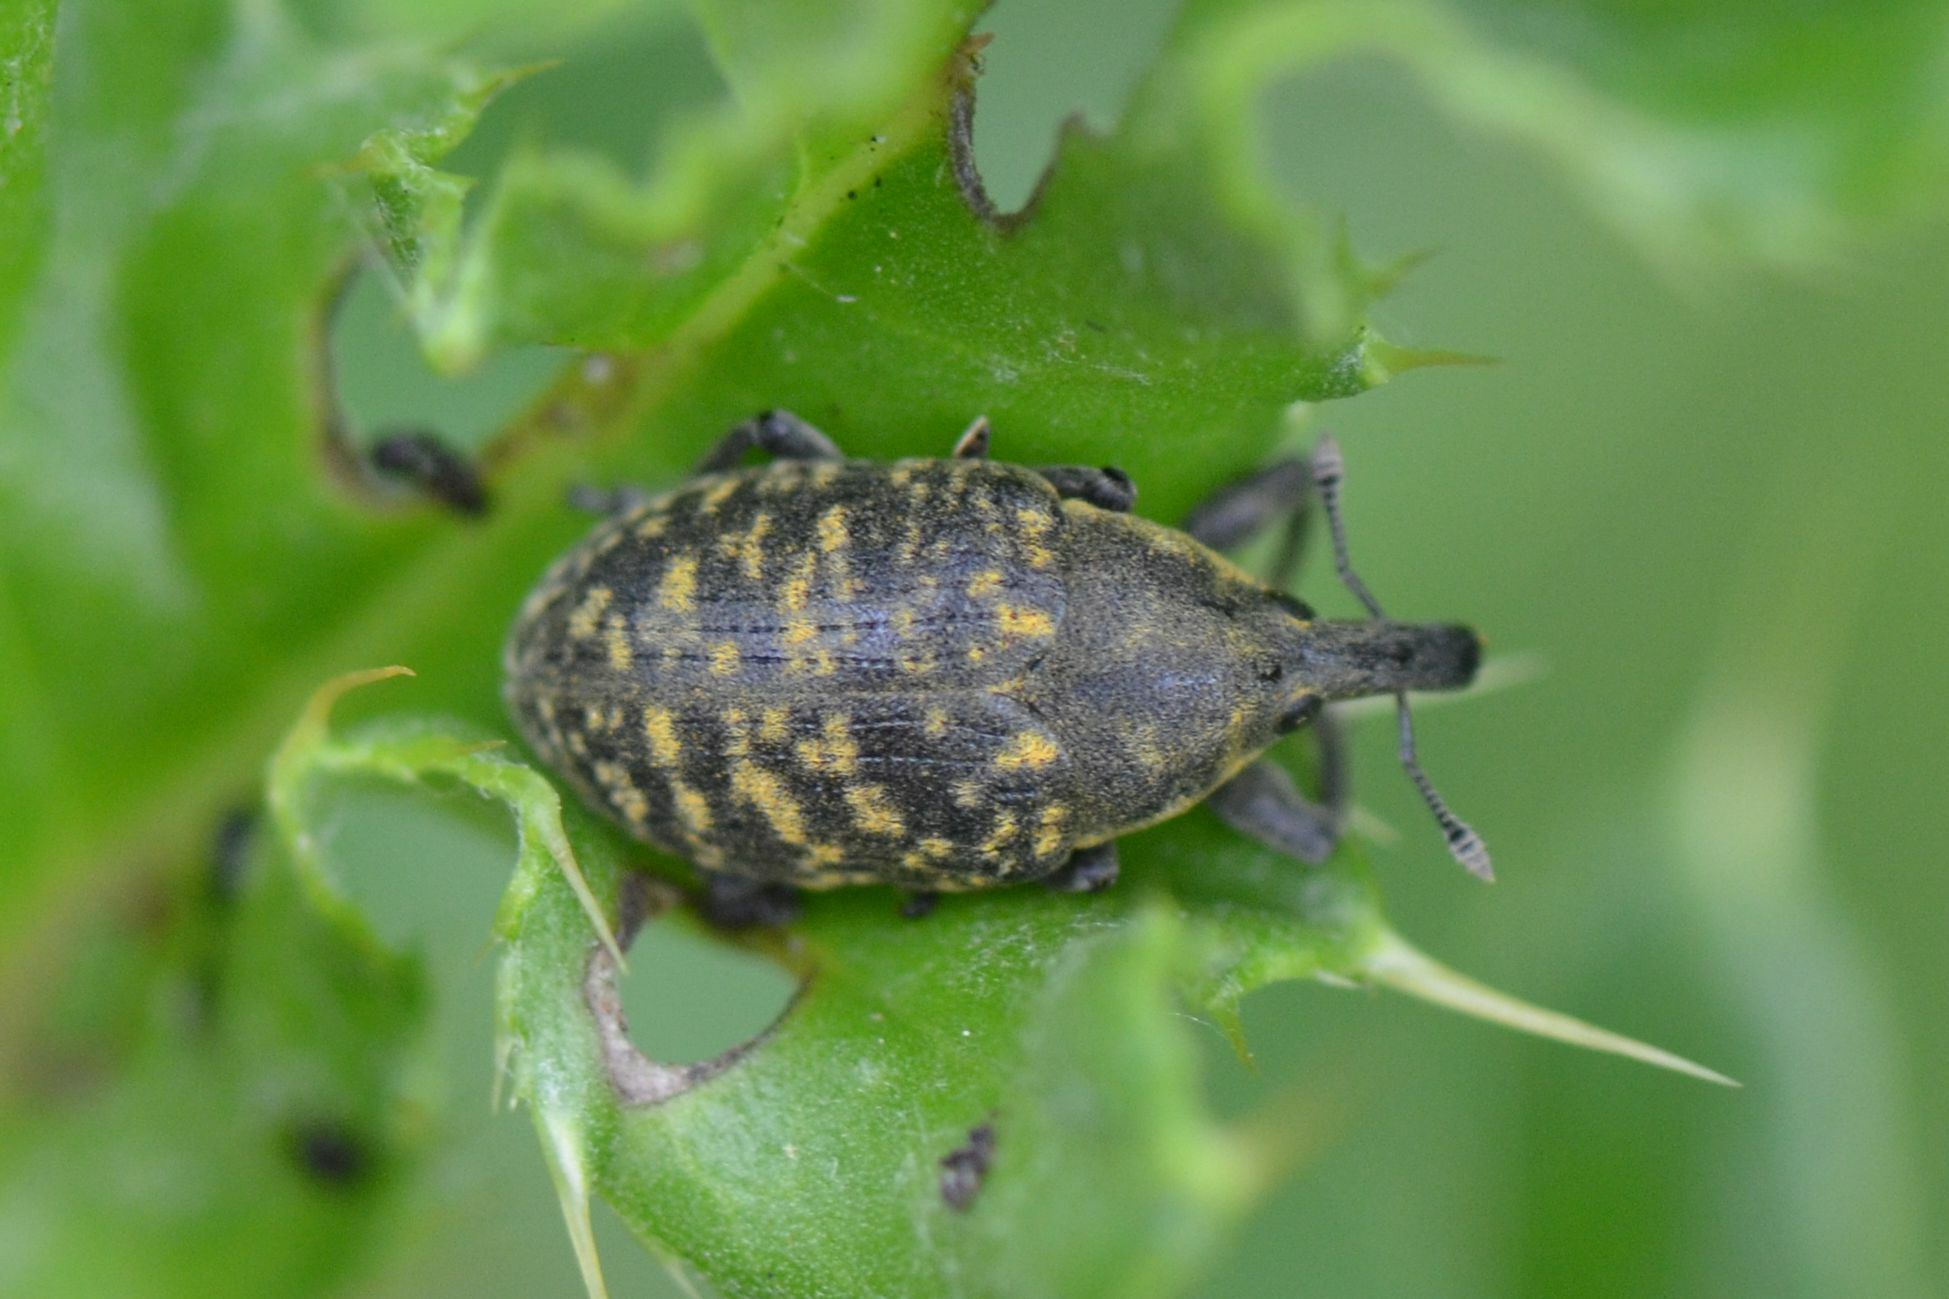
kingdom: Animalia
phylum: Arthropoda
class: Insecta
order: Coleoptera
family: Curculionidae
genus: Larinus
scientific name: Larinus turbinatus
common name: Weevil
